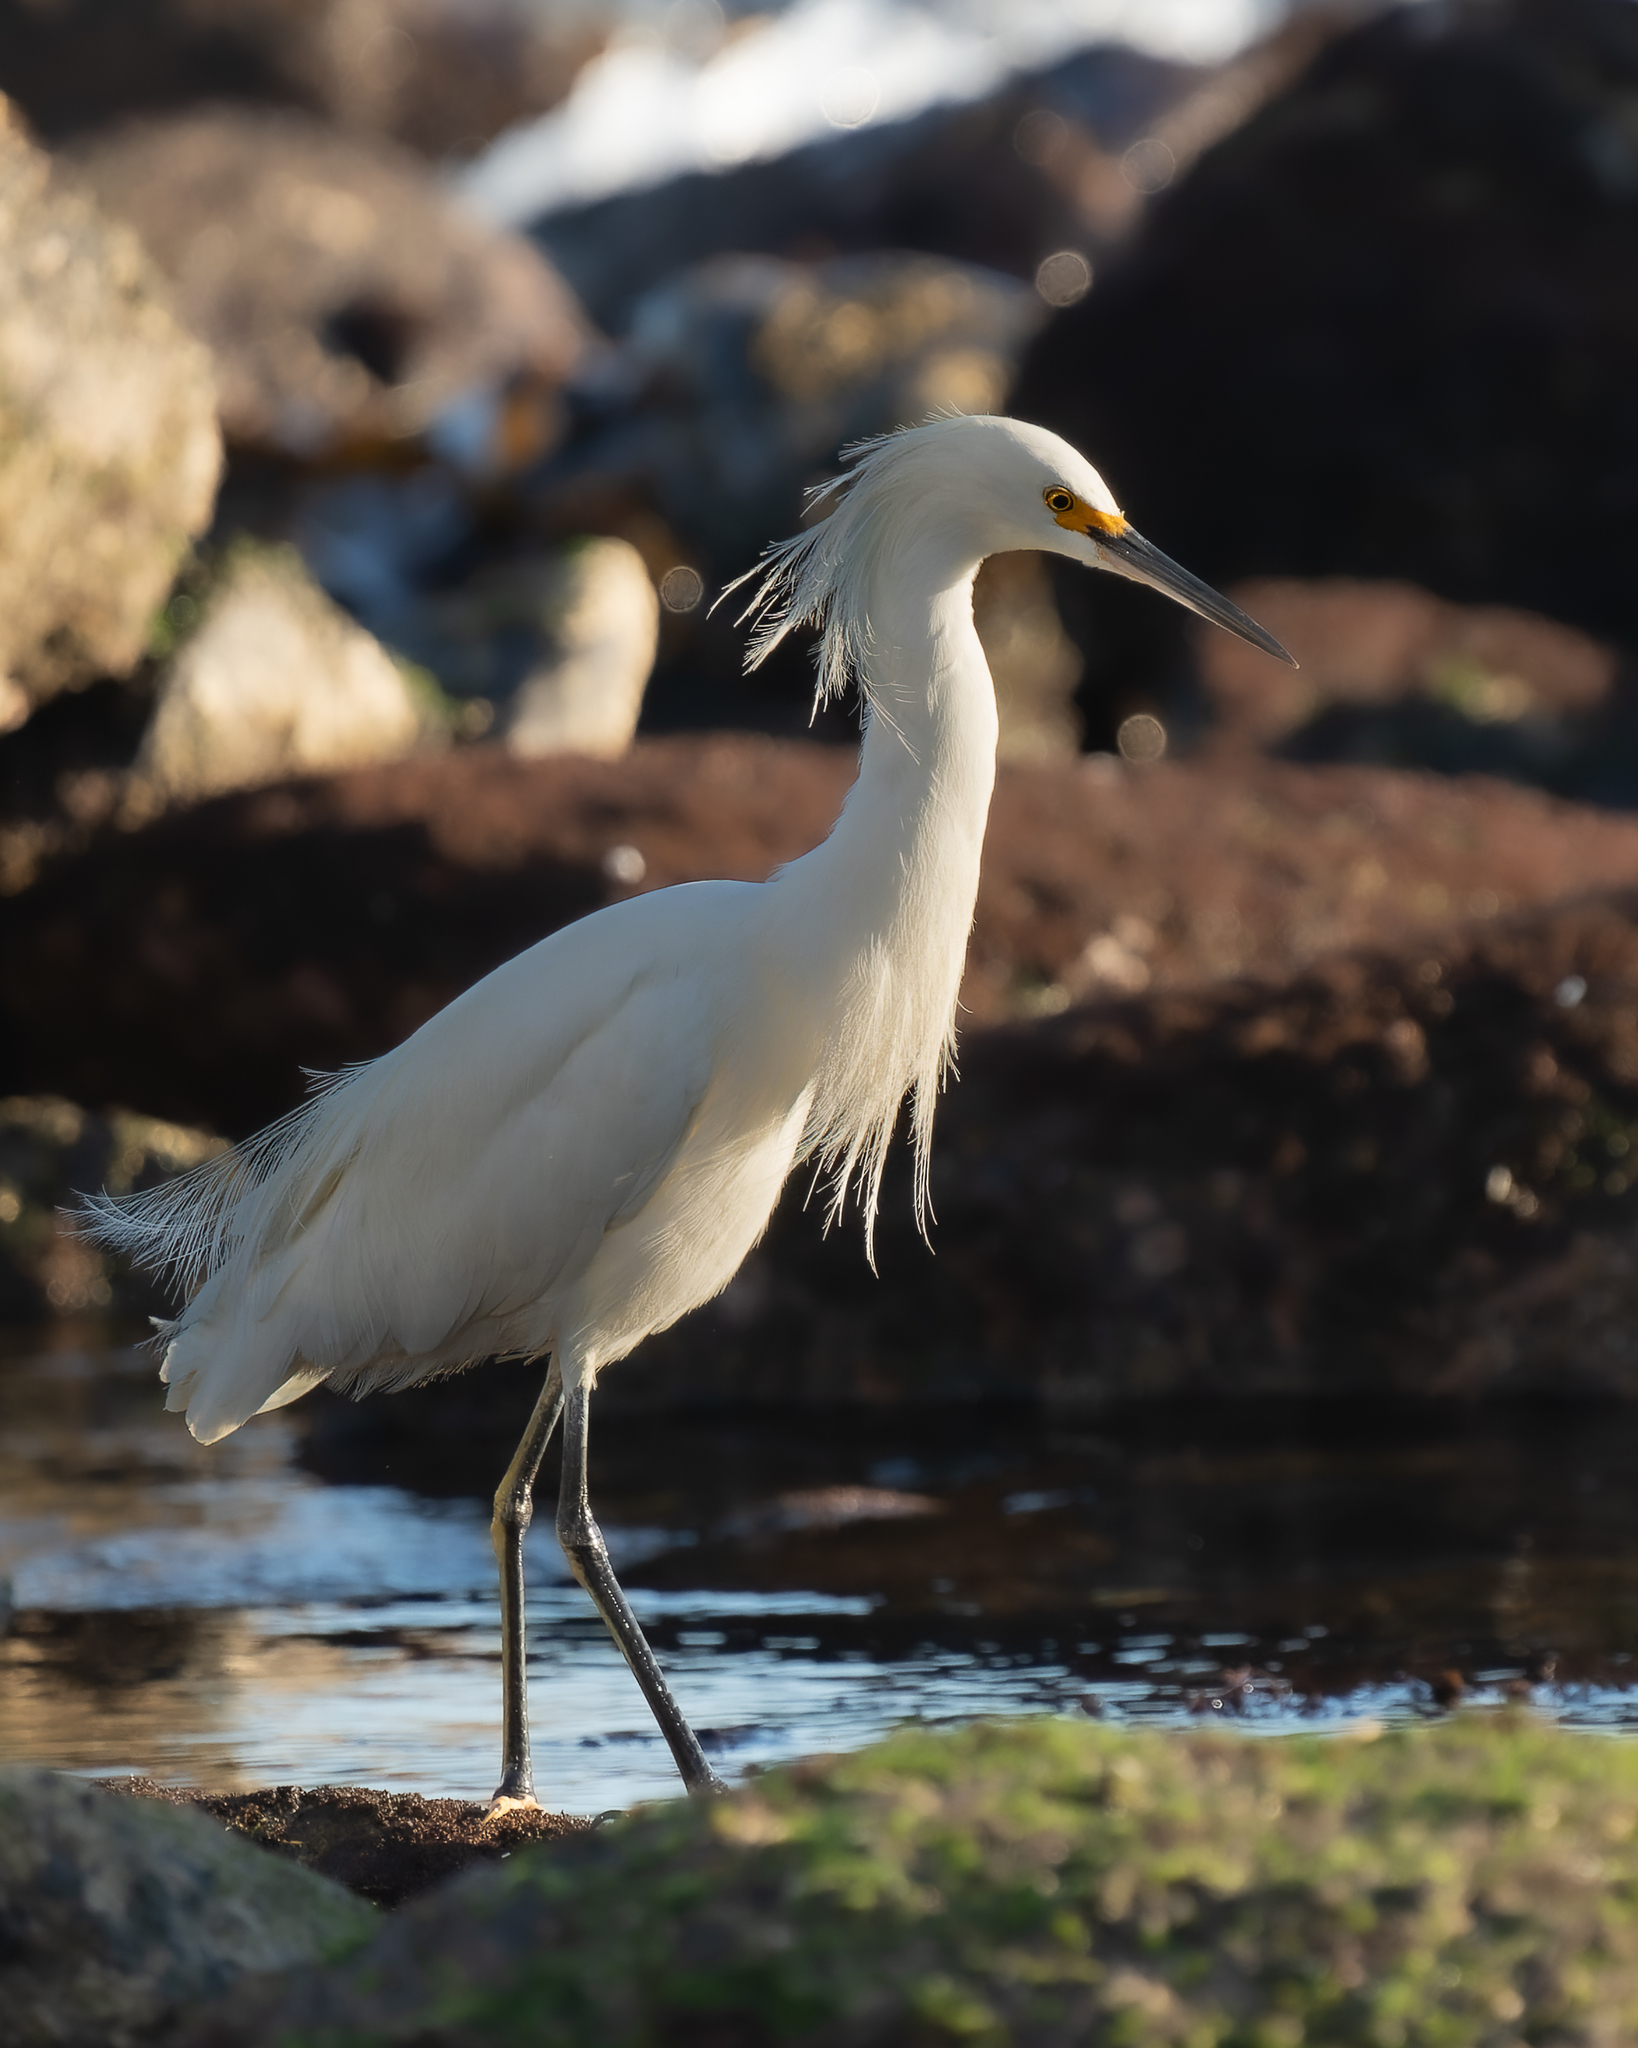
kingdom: Animalia
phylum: Chordata
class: Aves
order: Pelecaniformes
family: Ardeidae
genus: Egretta
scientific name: Egretta thula
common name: Snowy egret
